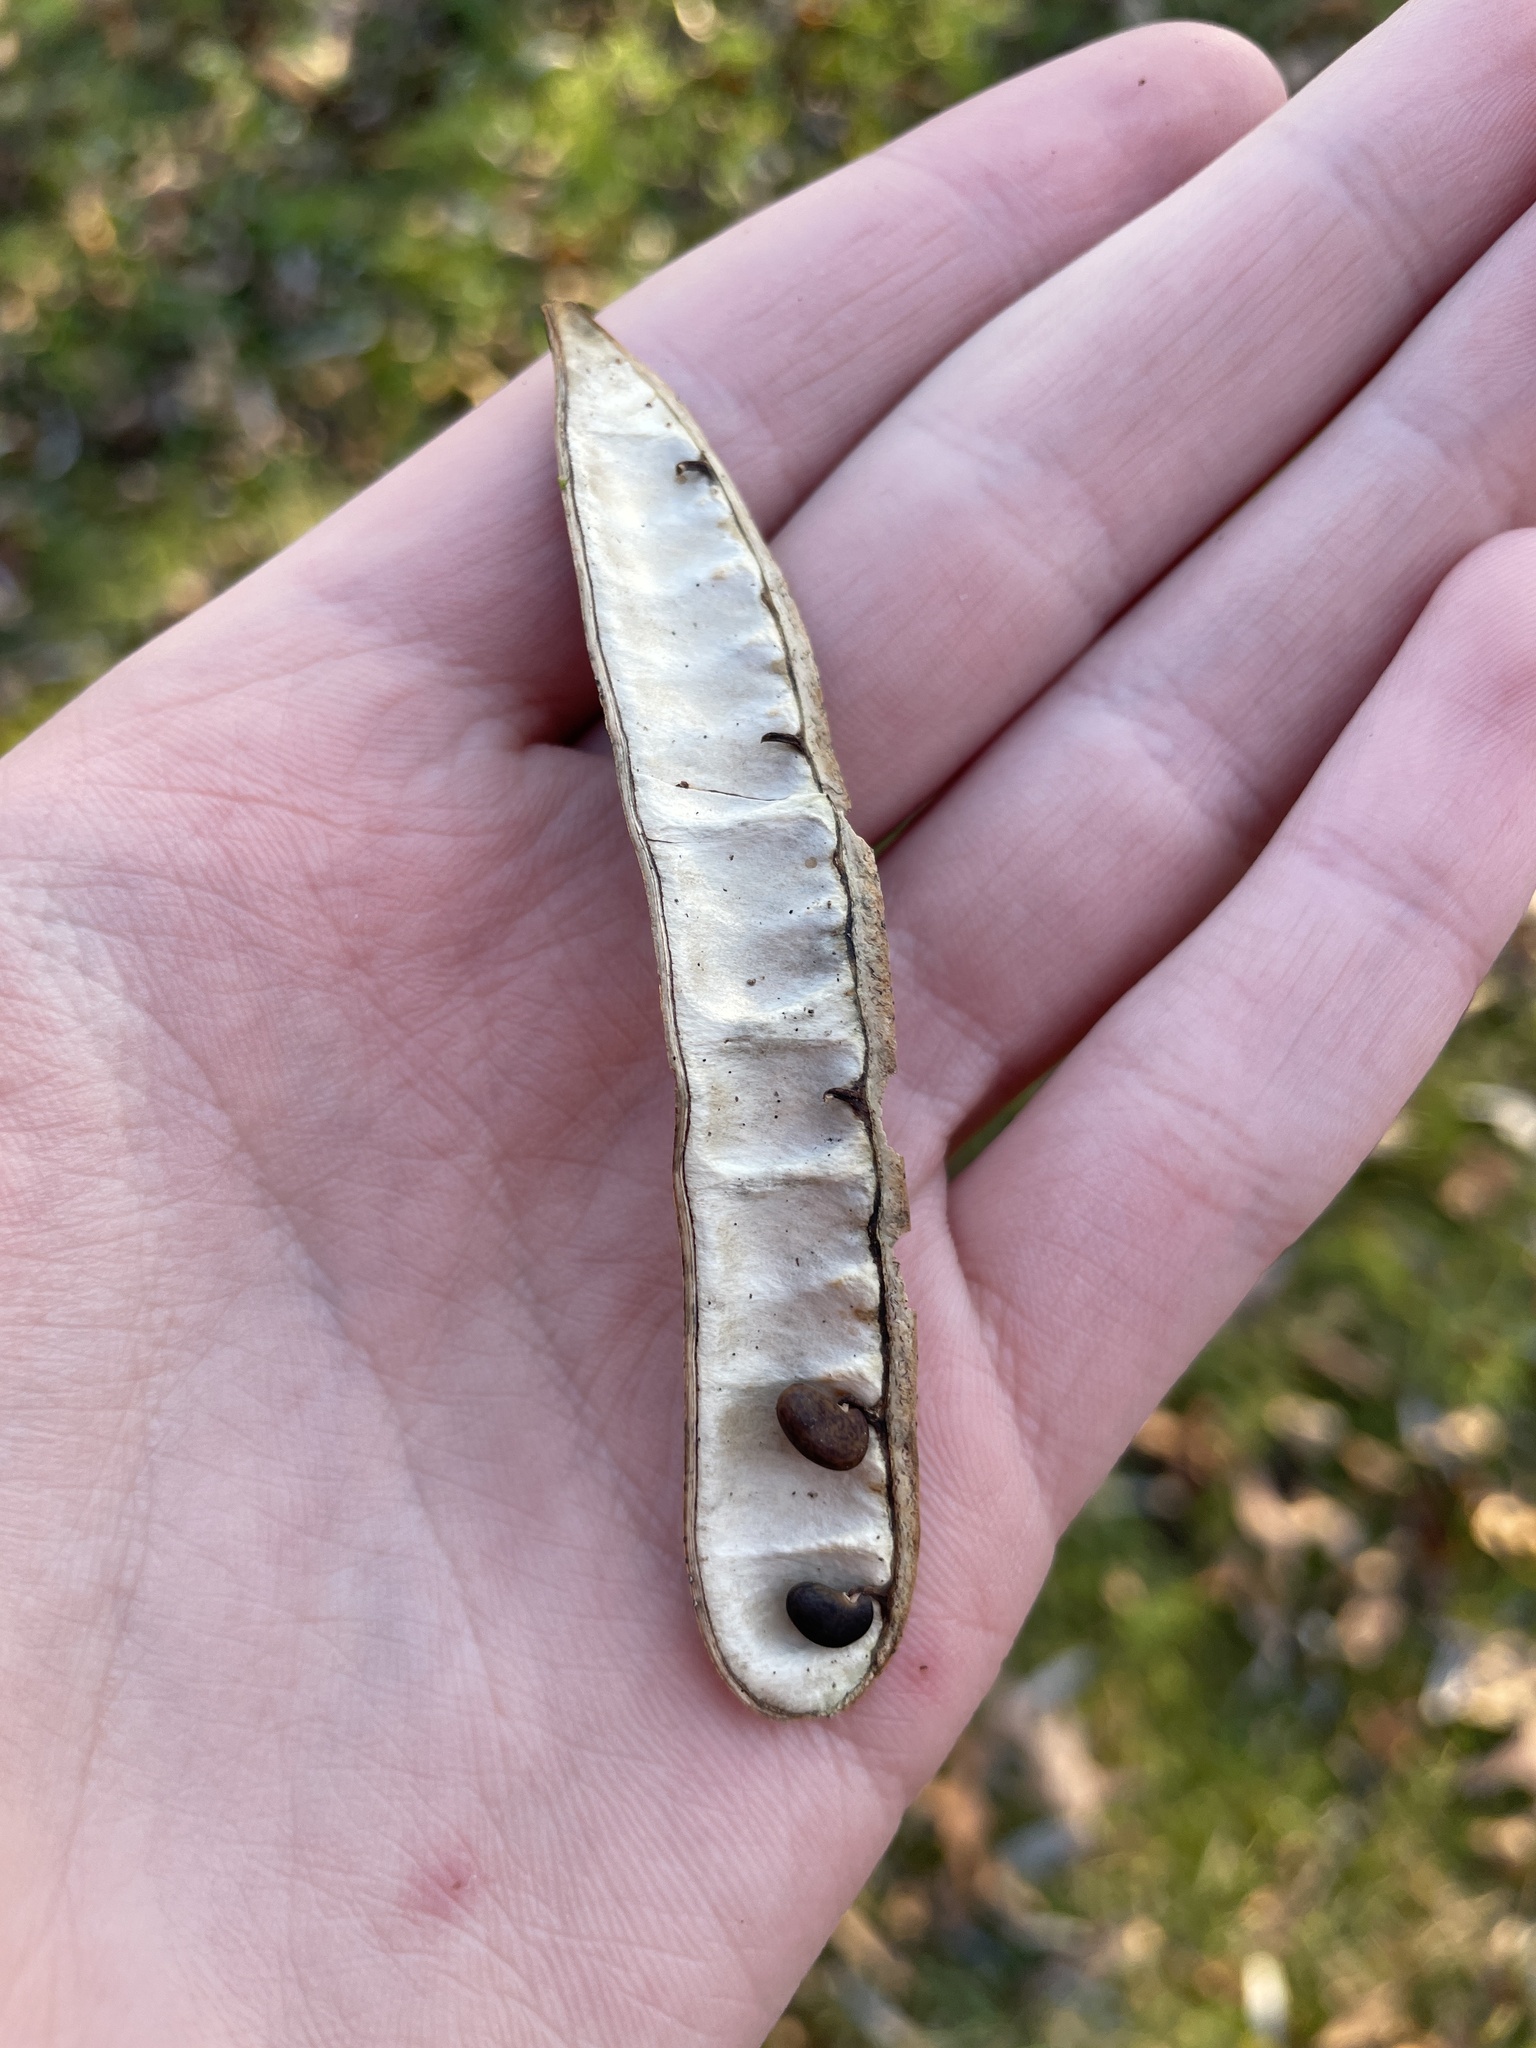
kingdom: Plantae
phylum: Tracheophyta
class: Magnoliopsida
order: Fabales
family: Fabaceae
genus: Robinia
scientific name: Robinia pseudoacacia
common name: Black locust
